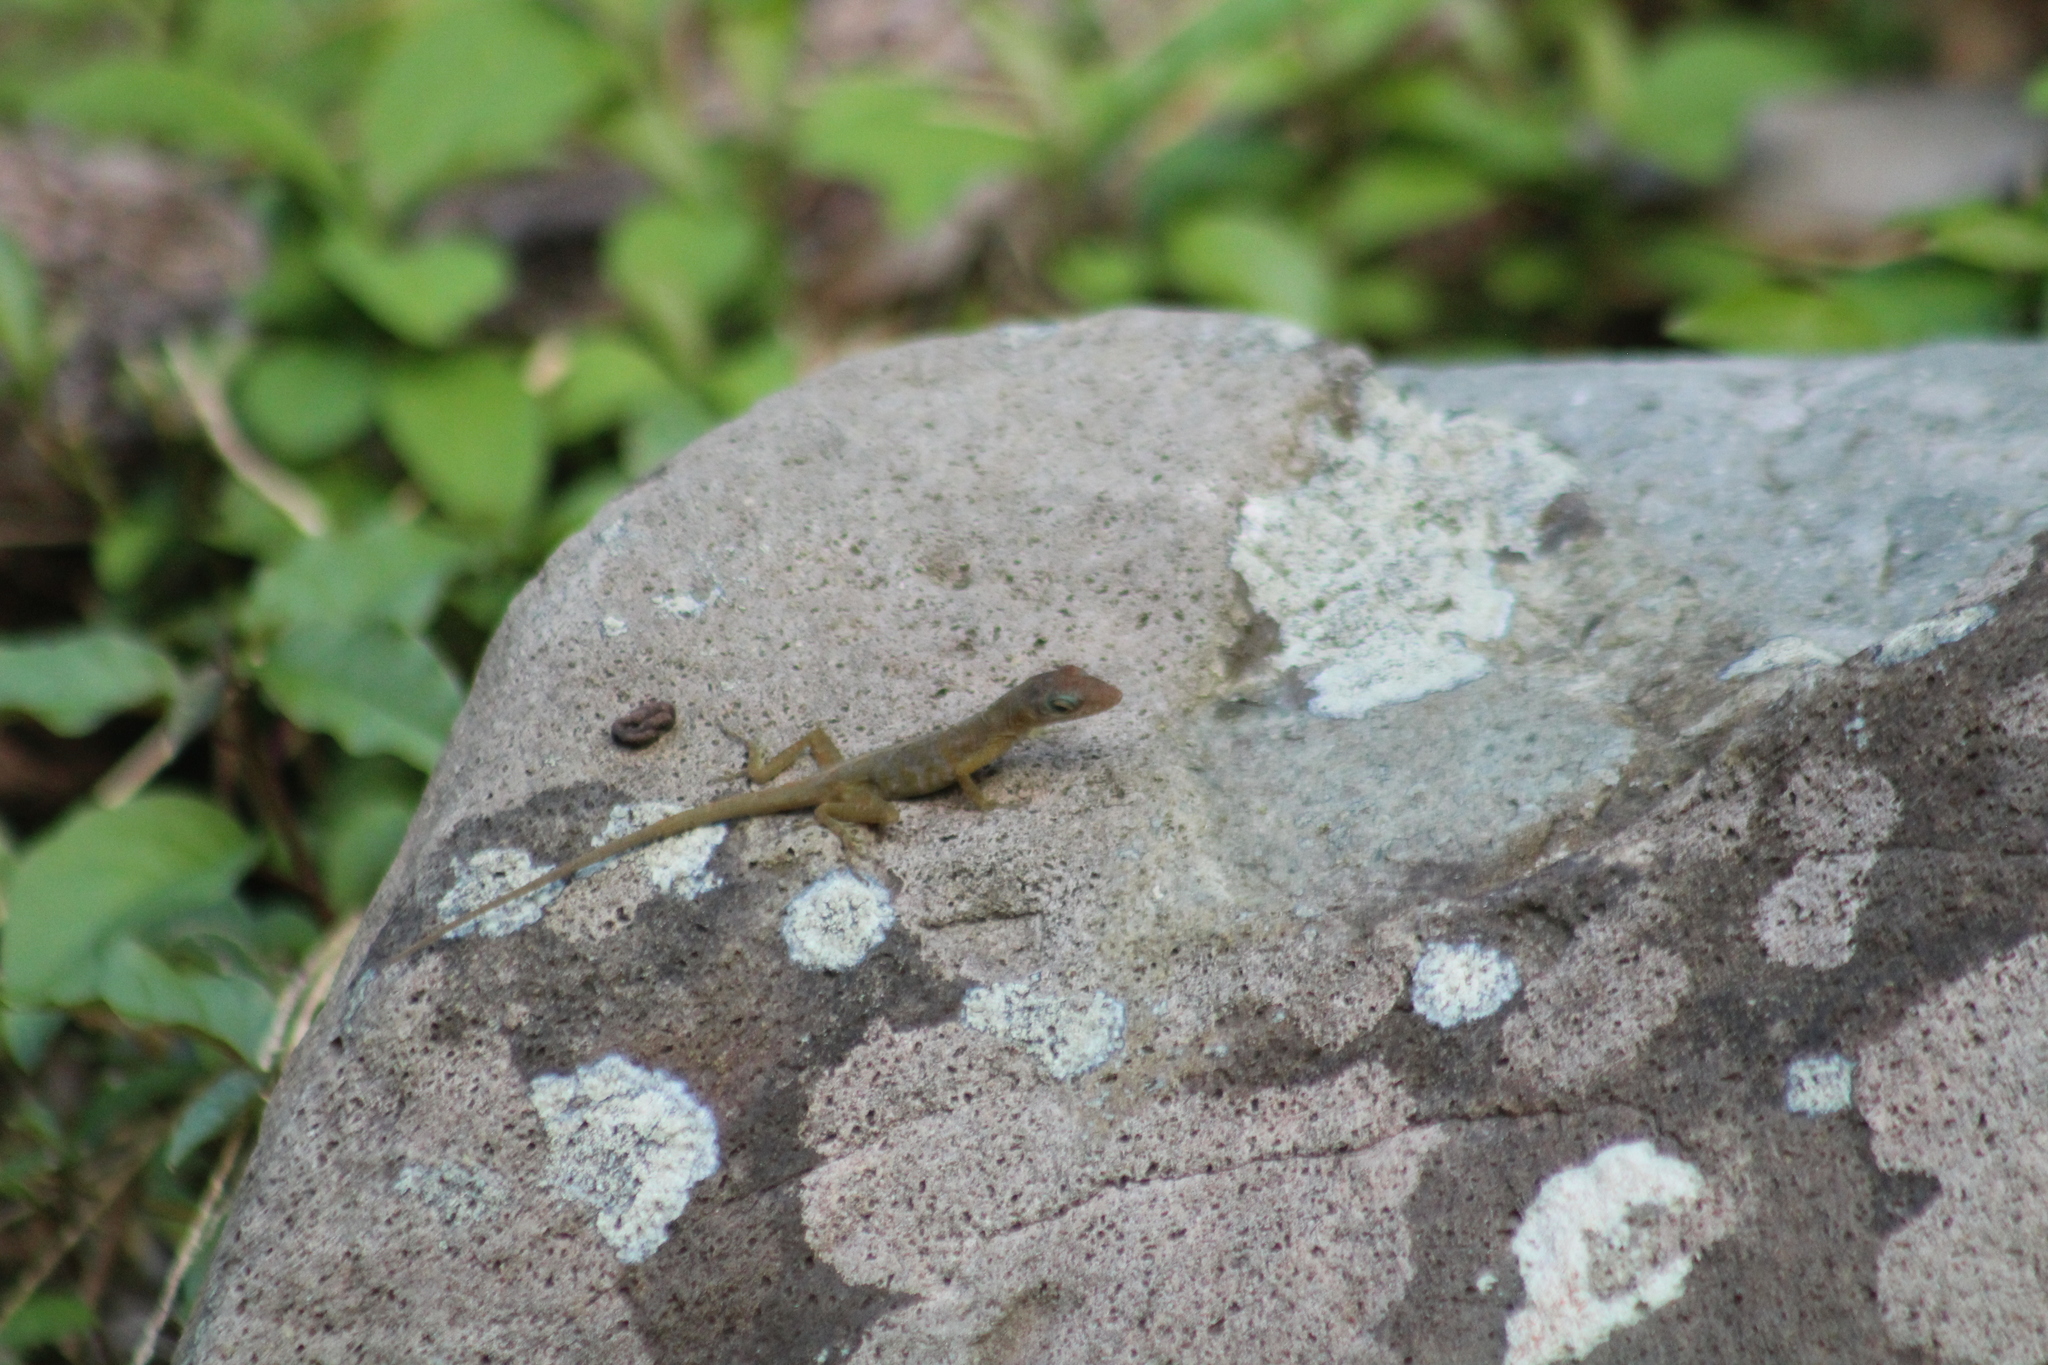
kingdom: Animalia
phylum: Chordata
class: Squamata
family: Dactyloidae
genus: Anolis
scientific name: Anolis pogus
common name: Anguilla bank bush anole
